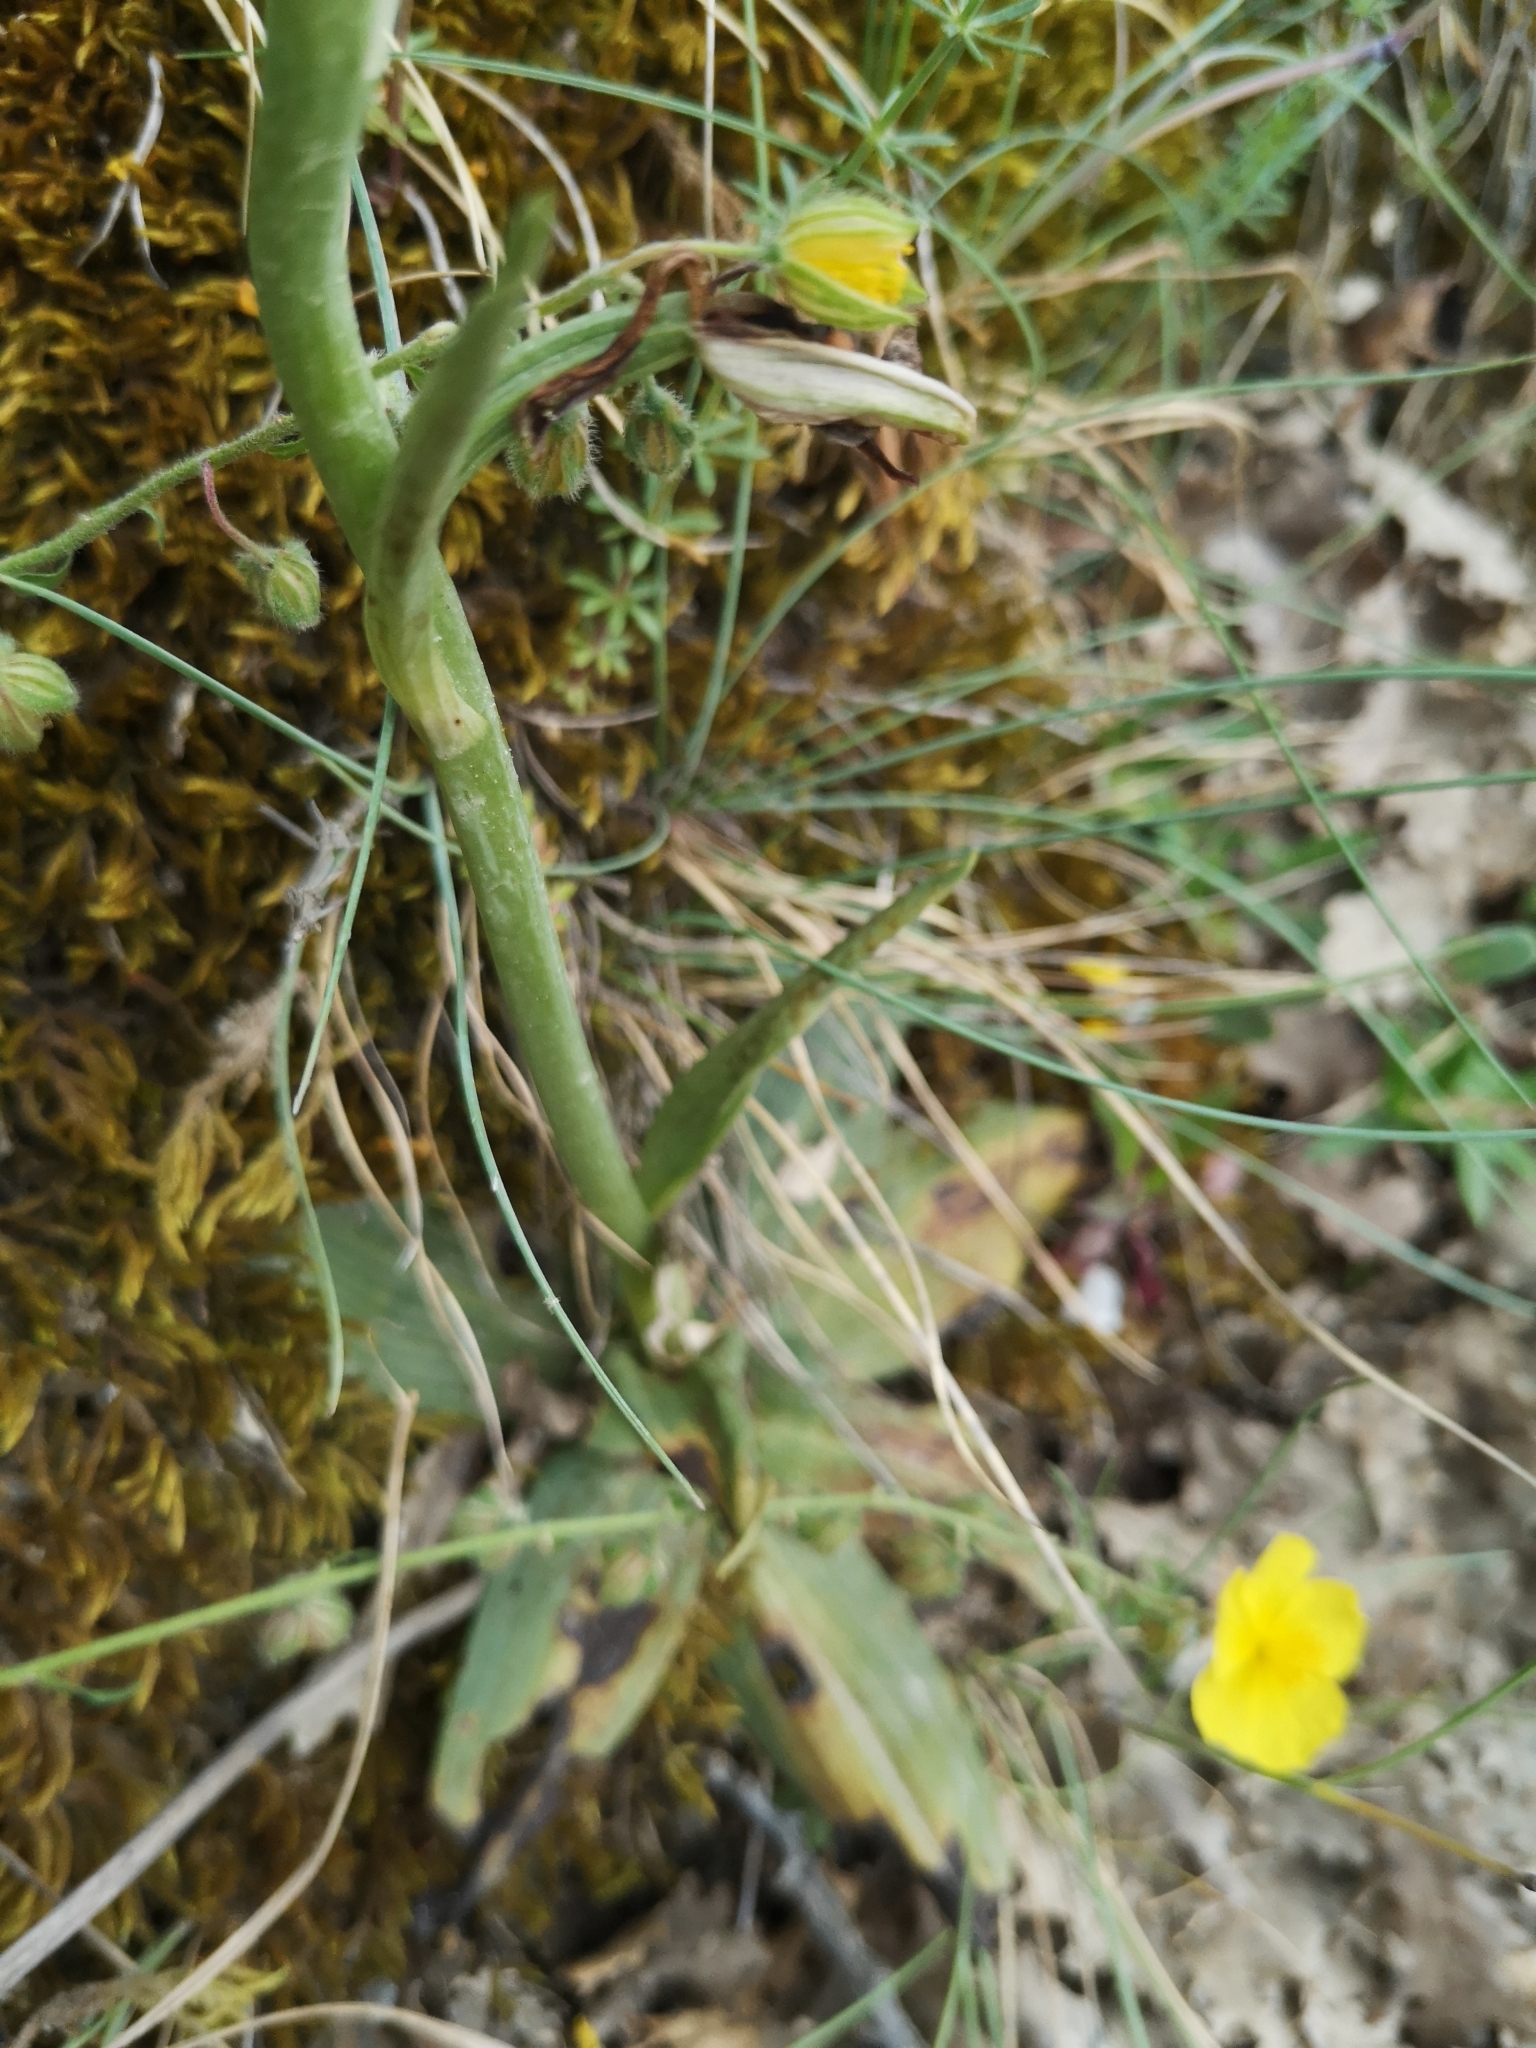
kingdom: Plantae
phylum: Tracheophyta
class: Liliopsida
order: Asparagales
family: Orchidaceae
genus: Ophrys
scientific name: Ophrys bertolonii
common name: Bertoloni's bee orchid
